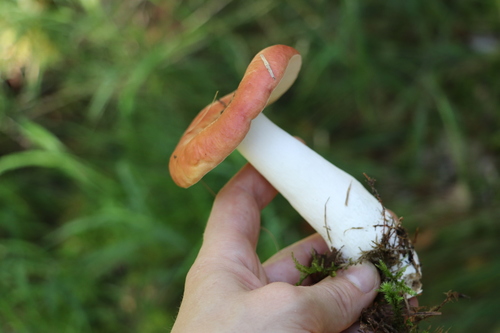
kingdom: Fungi
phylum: Basidiomycota
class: Agaricomycetes
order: Russulales
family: Russulaceae
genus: Russula
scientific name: Russula sanguinea
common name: Bloody brittlegill
